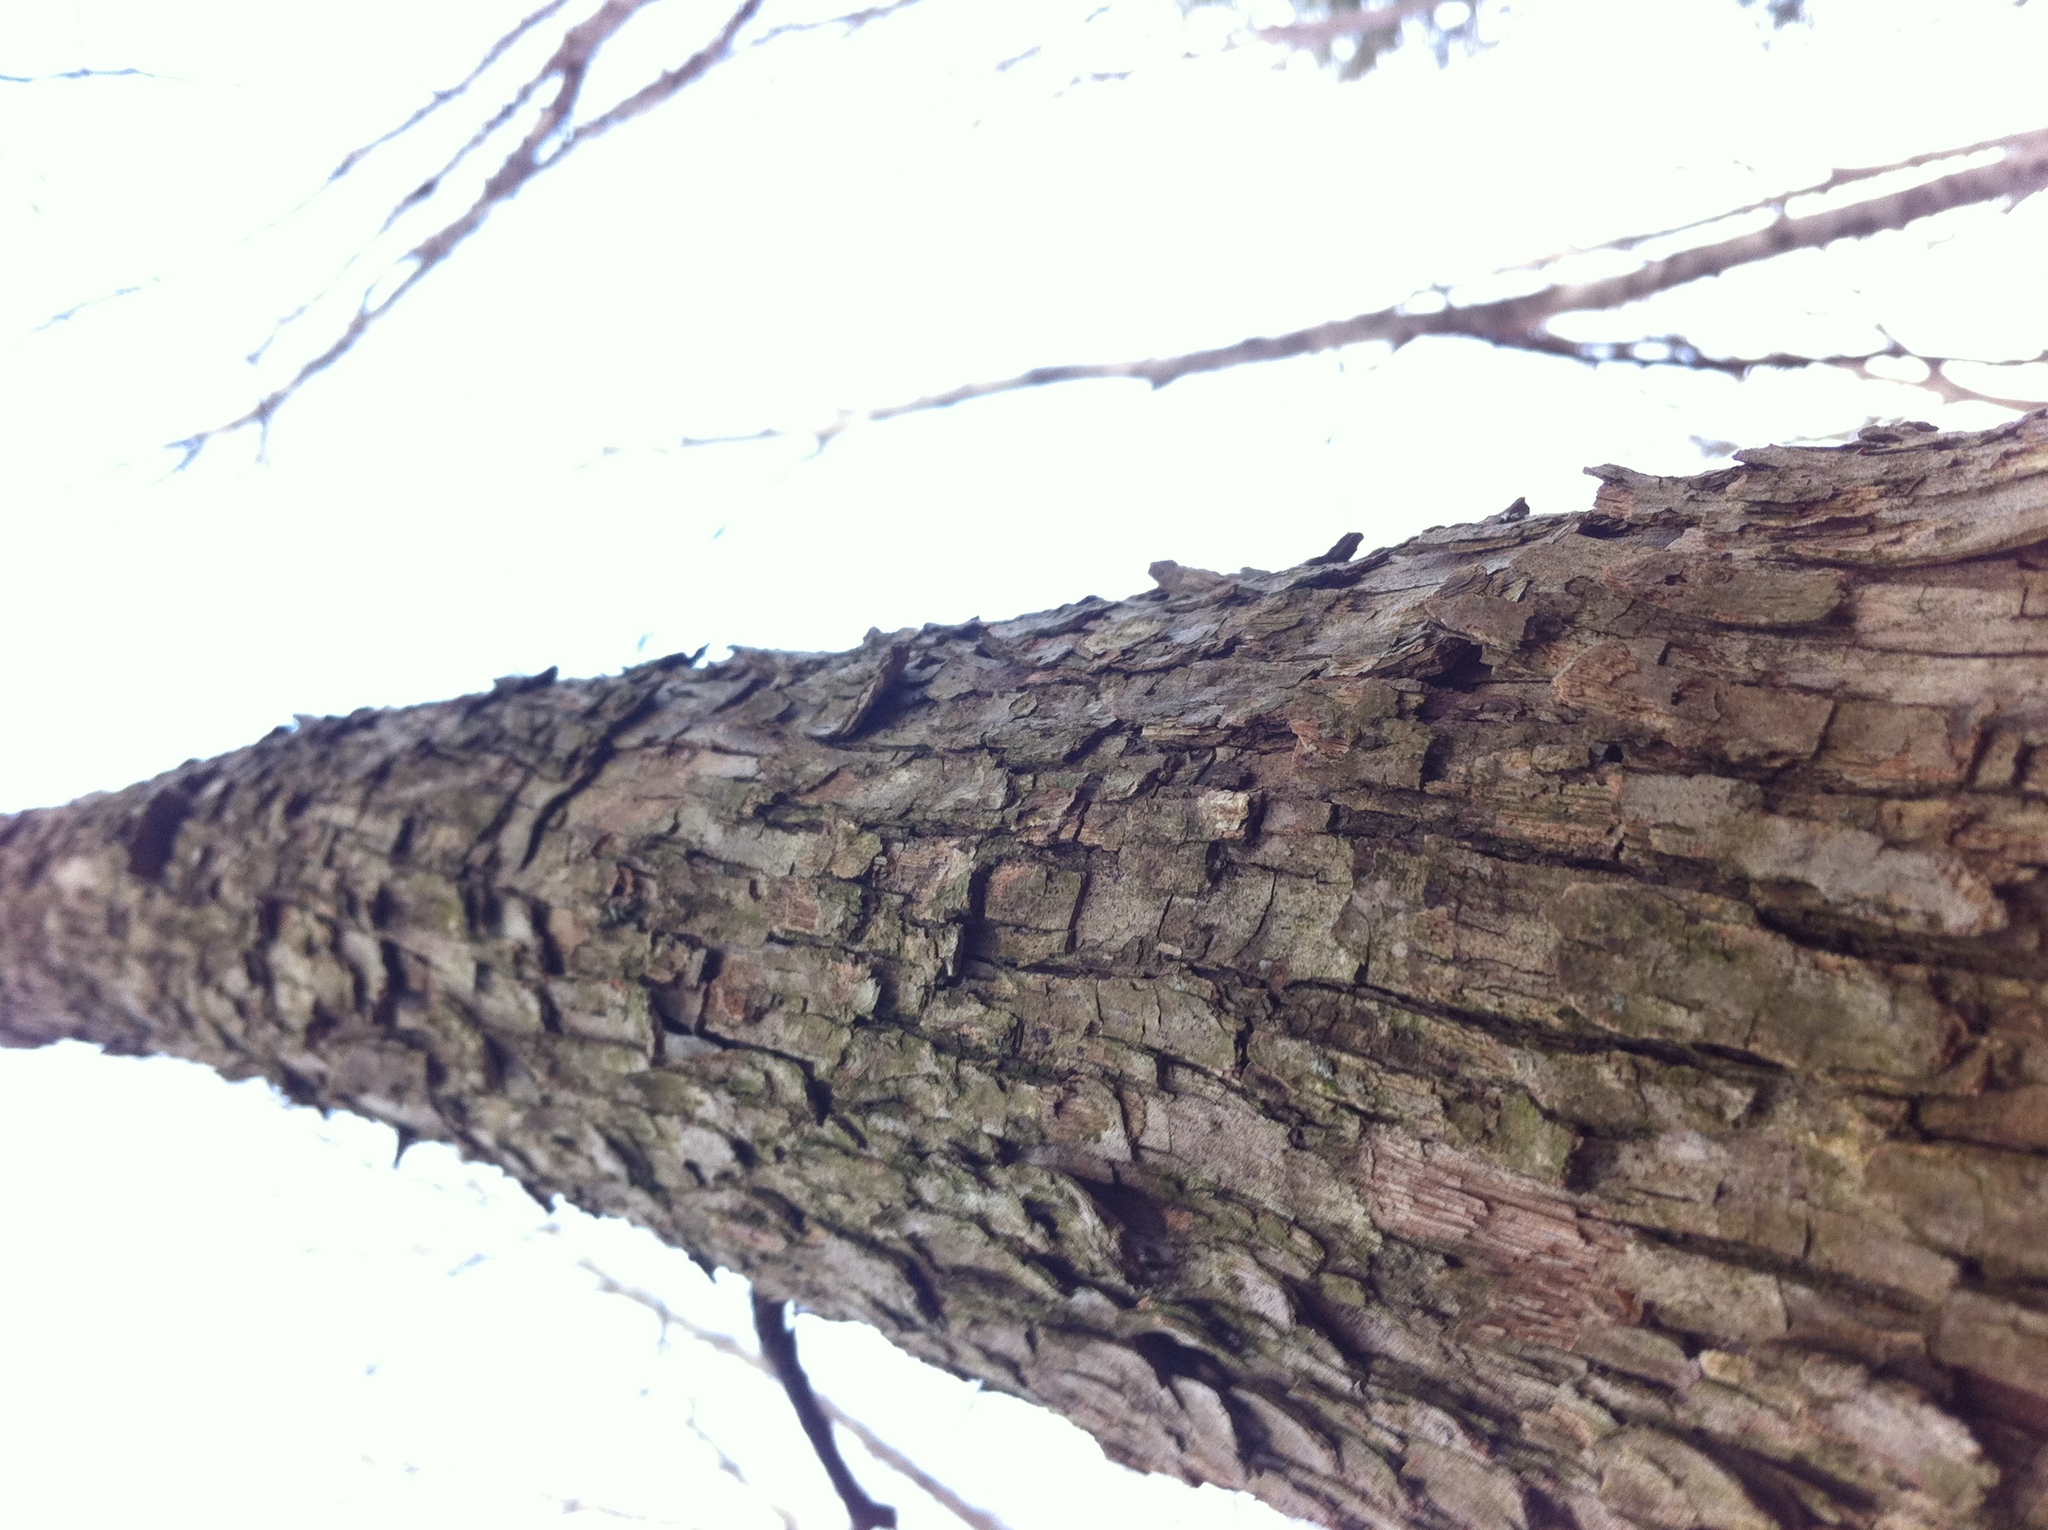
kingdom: Plantae
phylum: Tracheophyta
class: Magnoliopsida
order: Fagales
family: Betulaceae
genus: Ostrya
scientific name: Ostrya virginiana
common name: Ironwood
